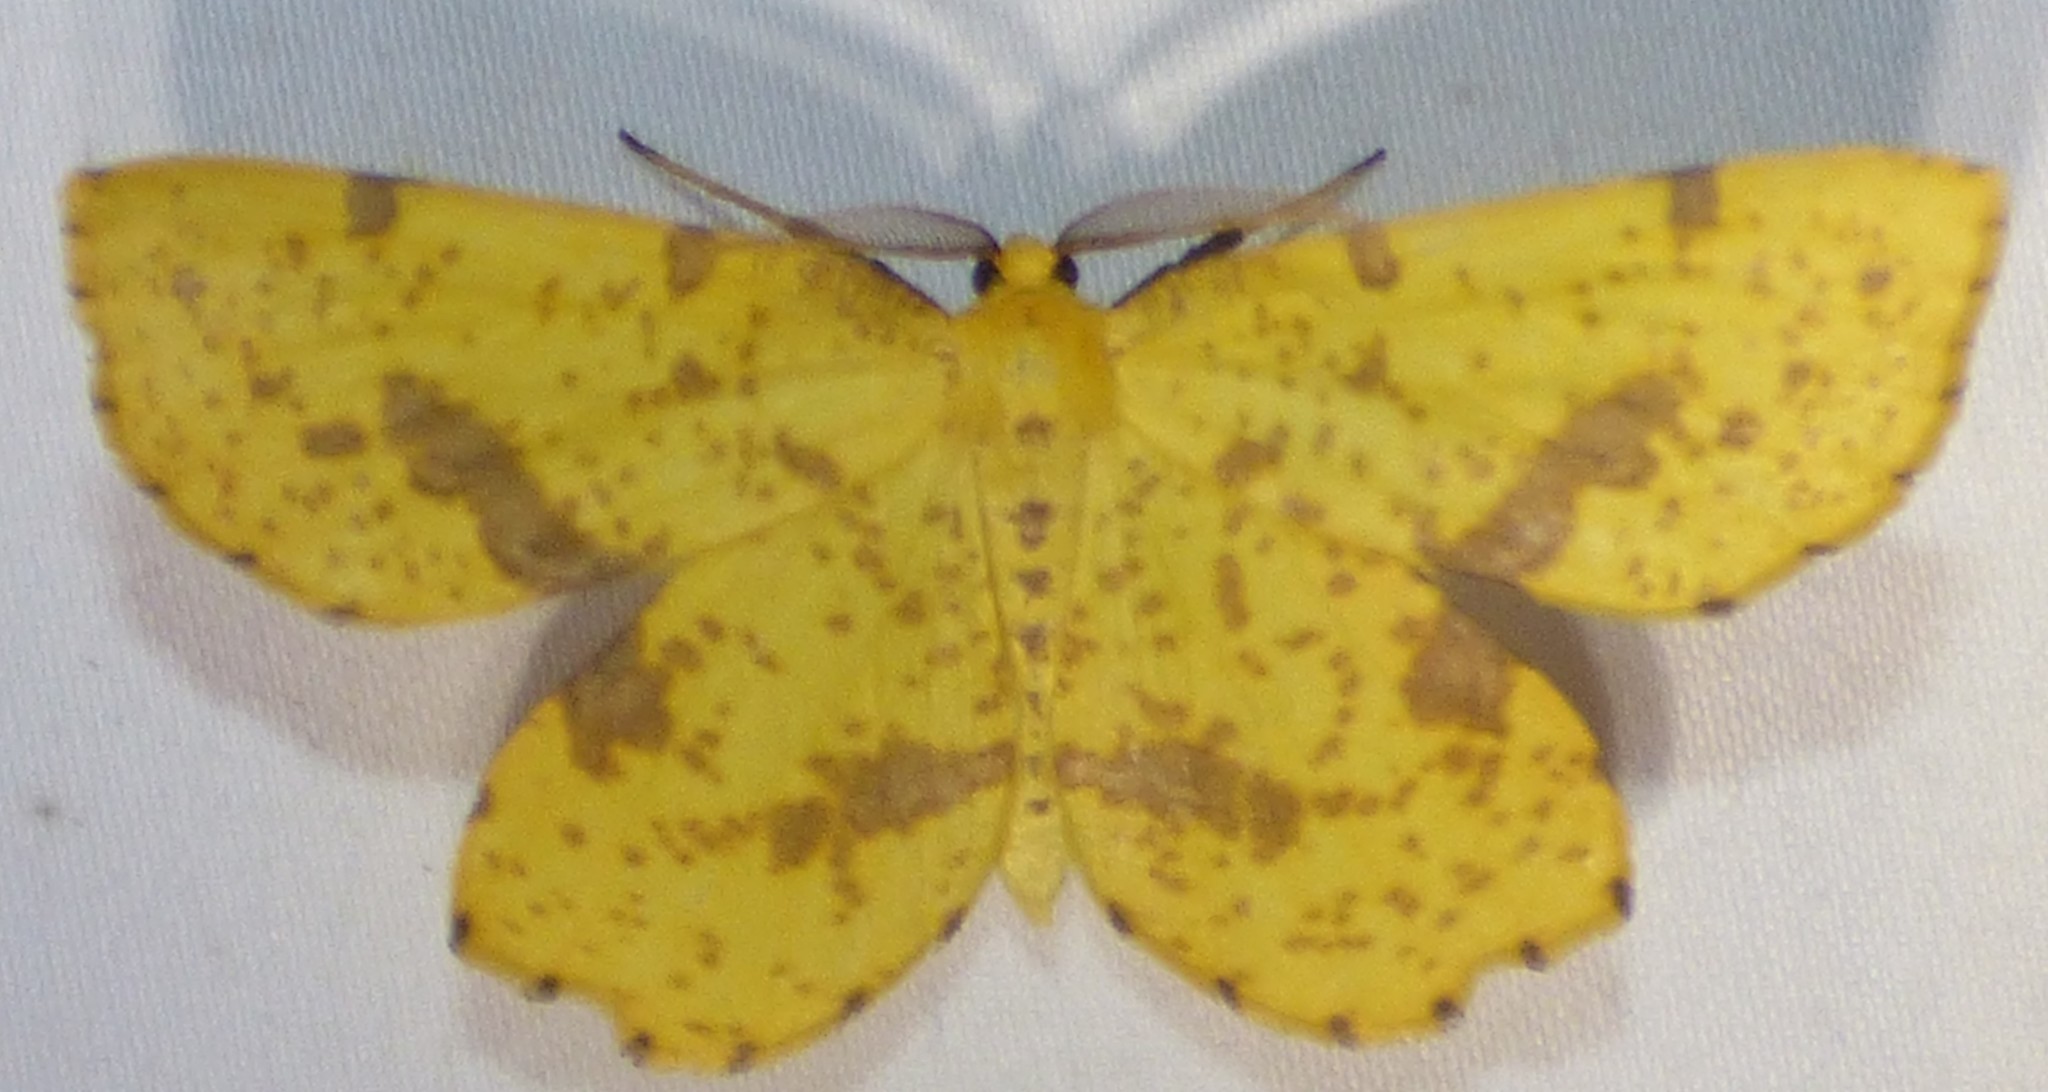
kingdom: Animalia
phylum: Arthropoda
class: Insecta
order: Lepidoptera
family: Geometridae
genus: Xanthotype
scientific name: Xanthotype
